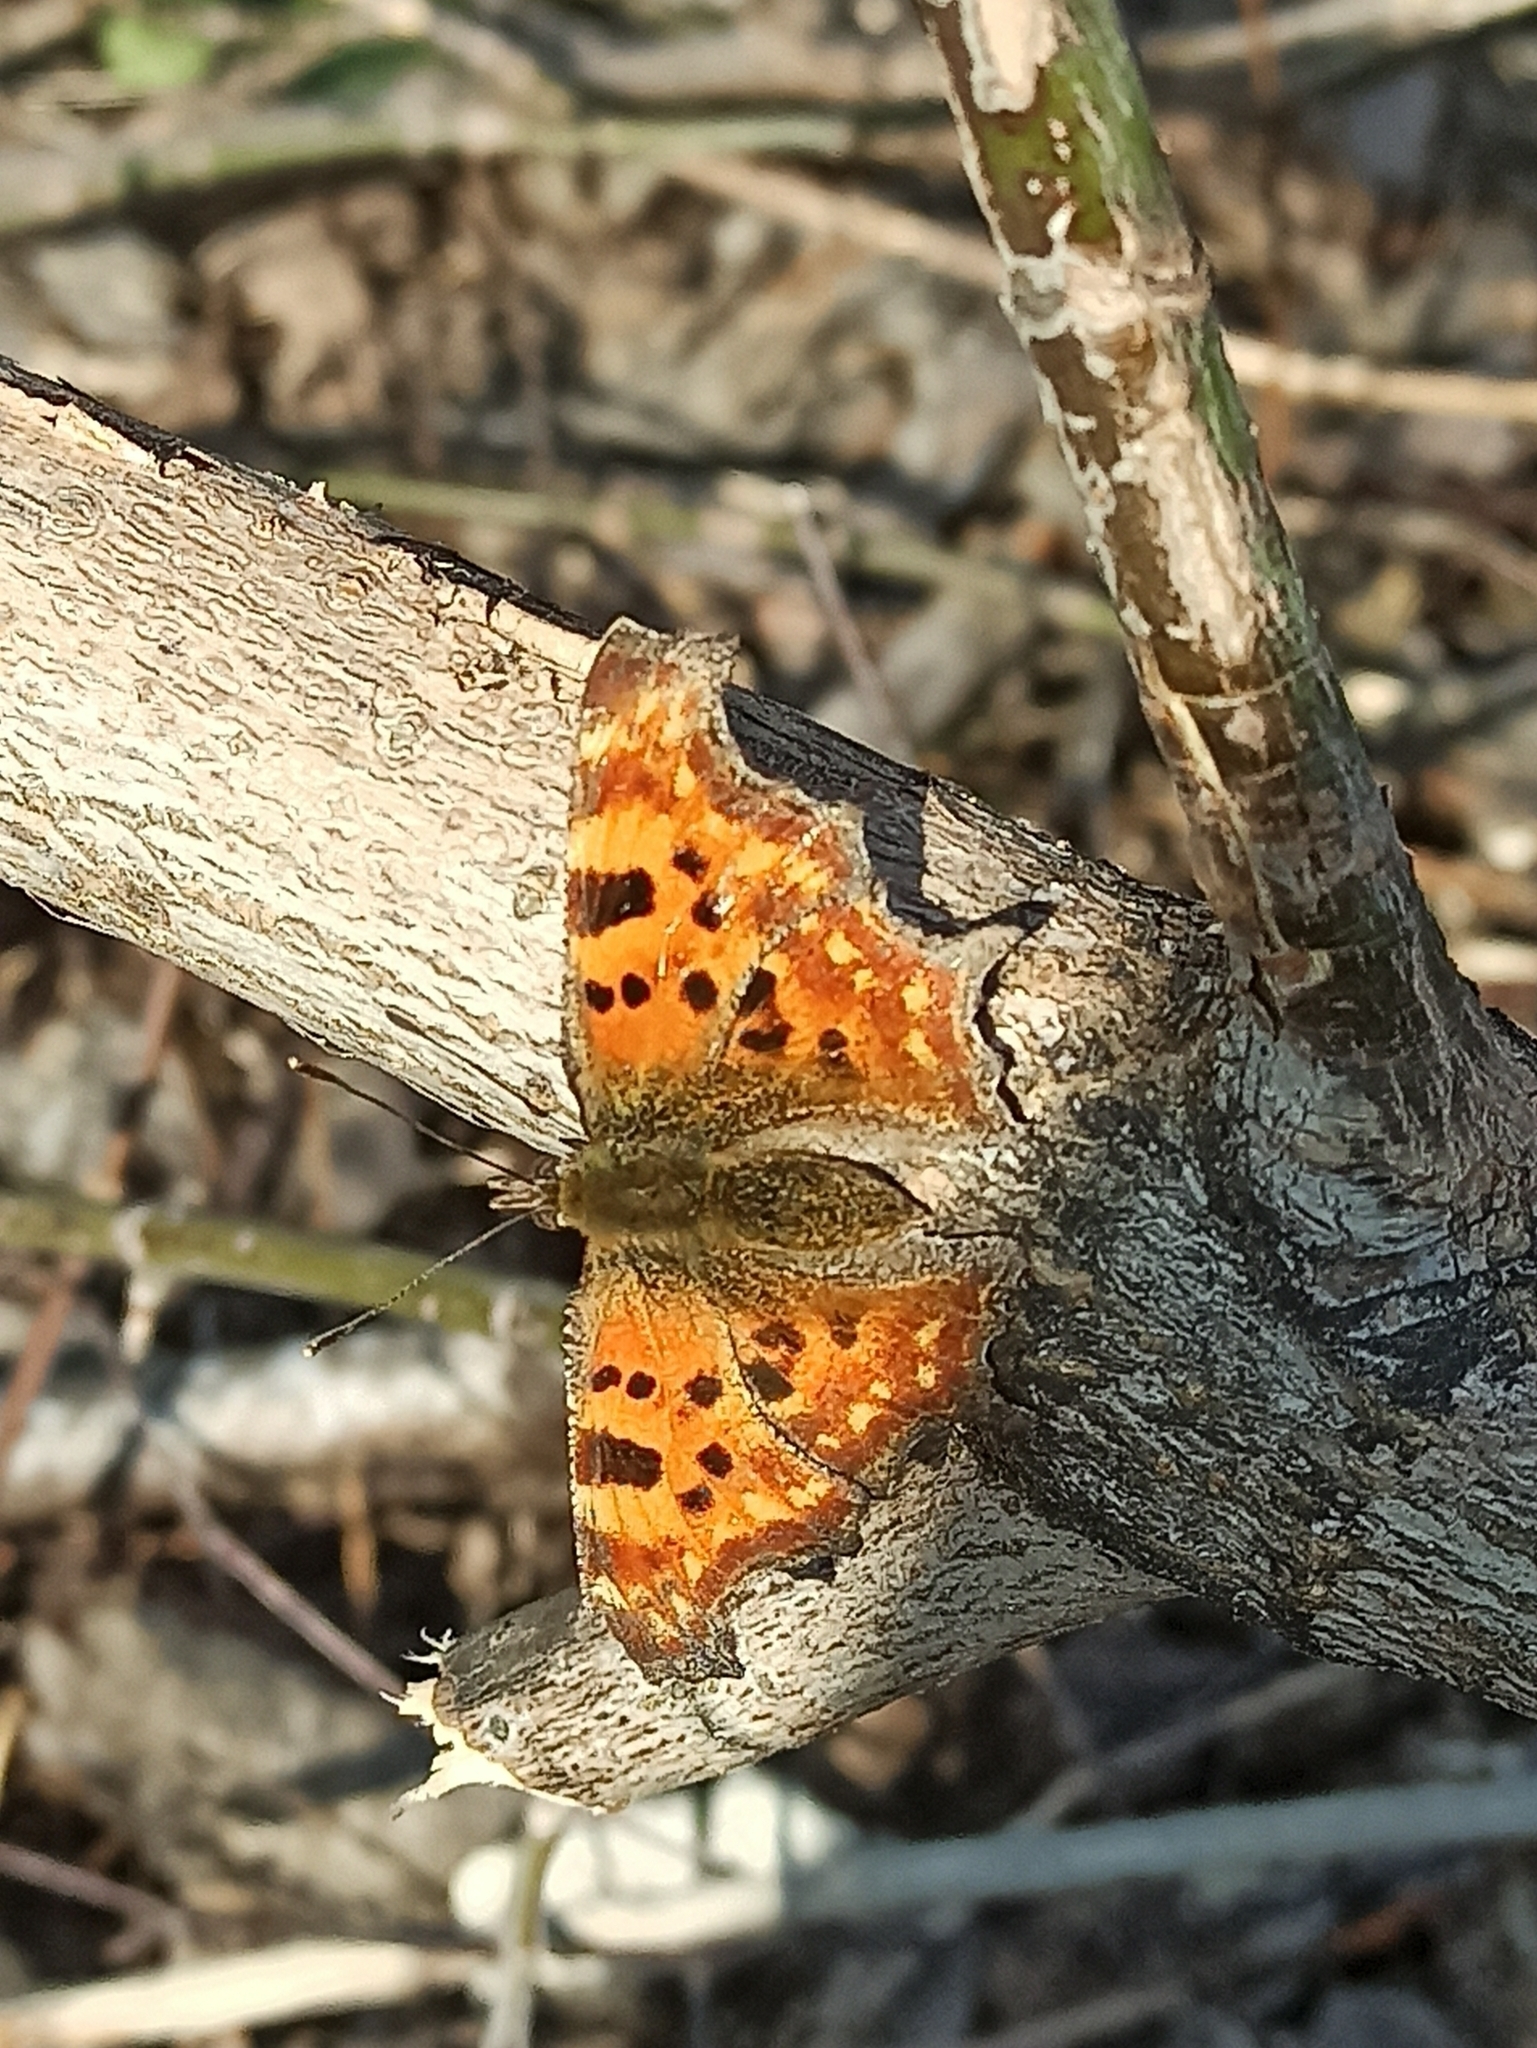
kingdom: Animalia
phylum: Arthropoda
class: Insecta
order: Lepidoptera
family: Nymphalidae
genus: Polygonia
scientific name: Polygonia c-album
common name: Comma
